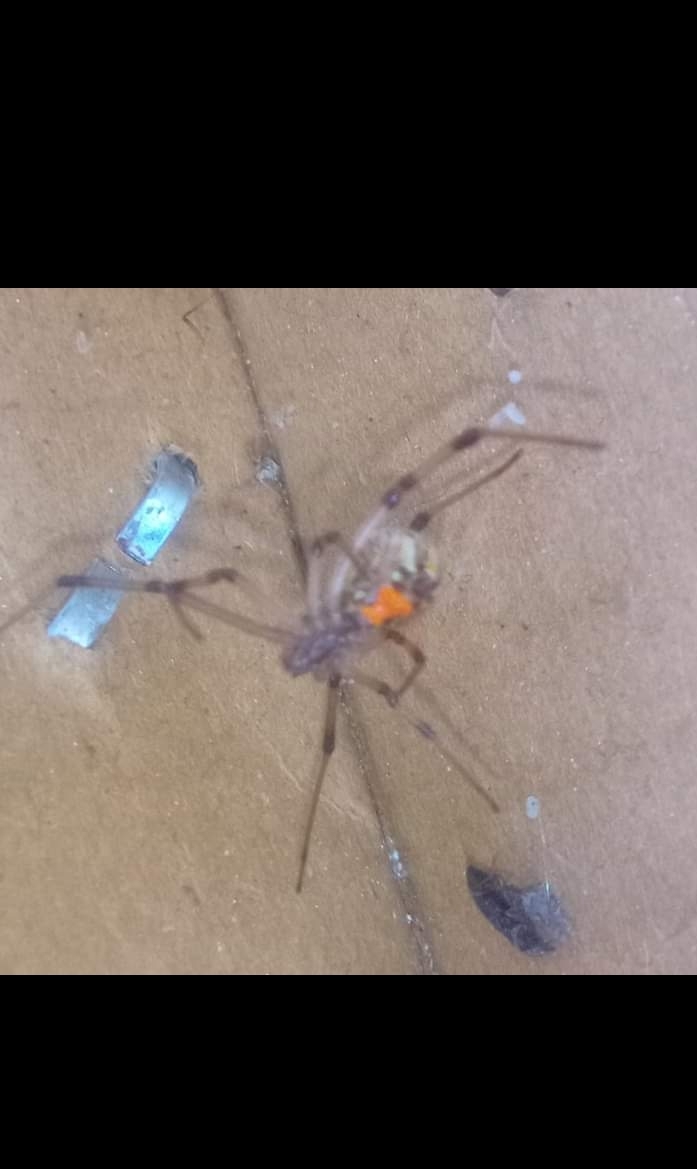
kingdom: Animalia
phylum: Arthropoda
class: Arachnida
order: Araneae
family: Theridiidae
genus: Latrodectus
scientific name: Latrodectus geometricus
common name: Brown widow spider
